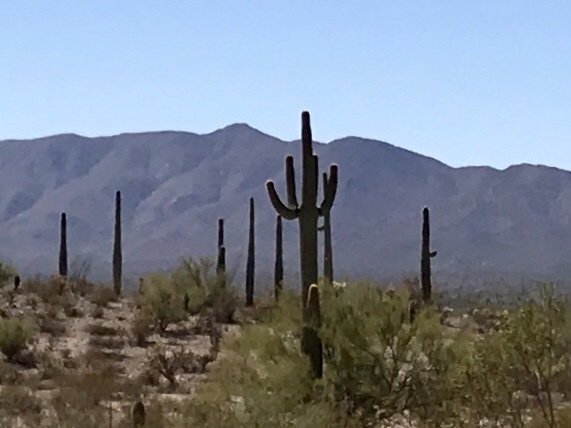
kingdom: Plantae
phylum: Tracheophyta
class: Magnoliopsida
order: Caryophyllales
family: Cactaceae
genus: Carnegiea
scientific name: Carnegiea gigantea
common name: Saguaro
